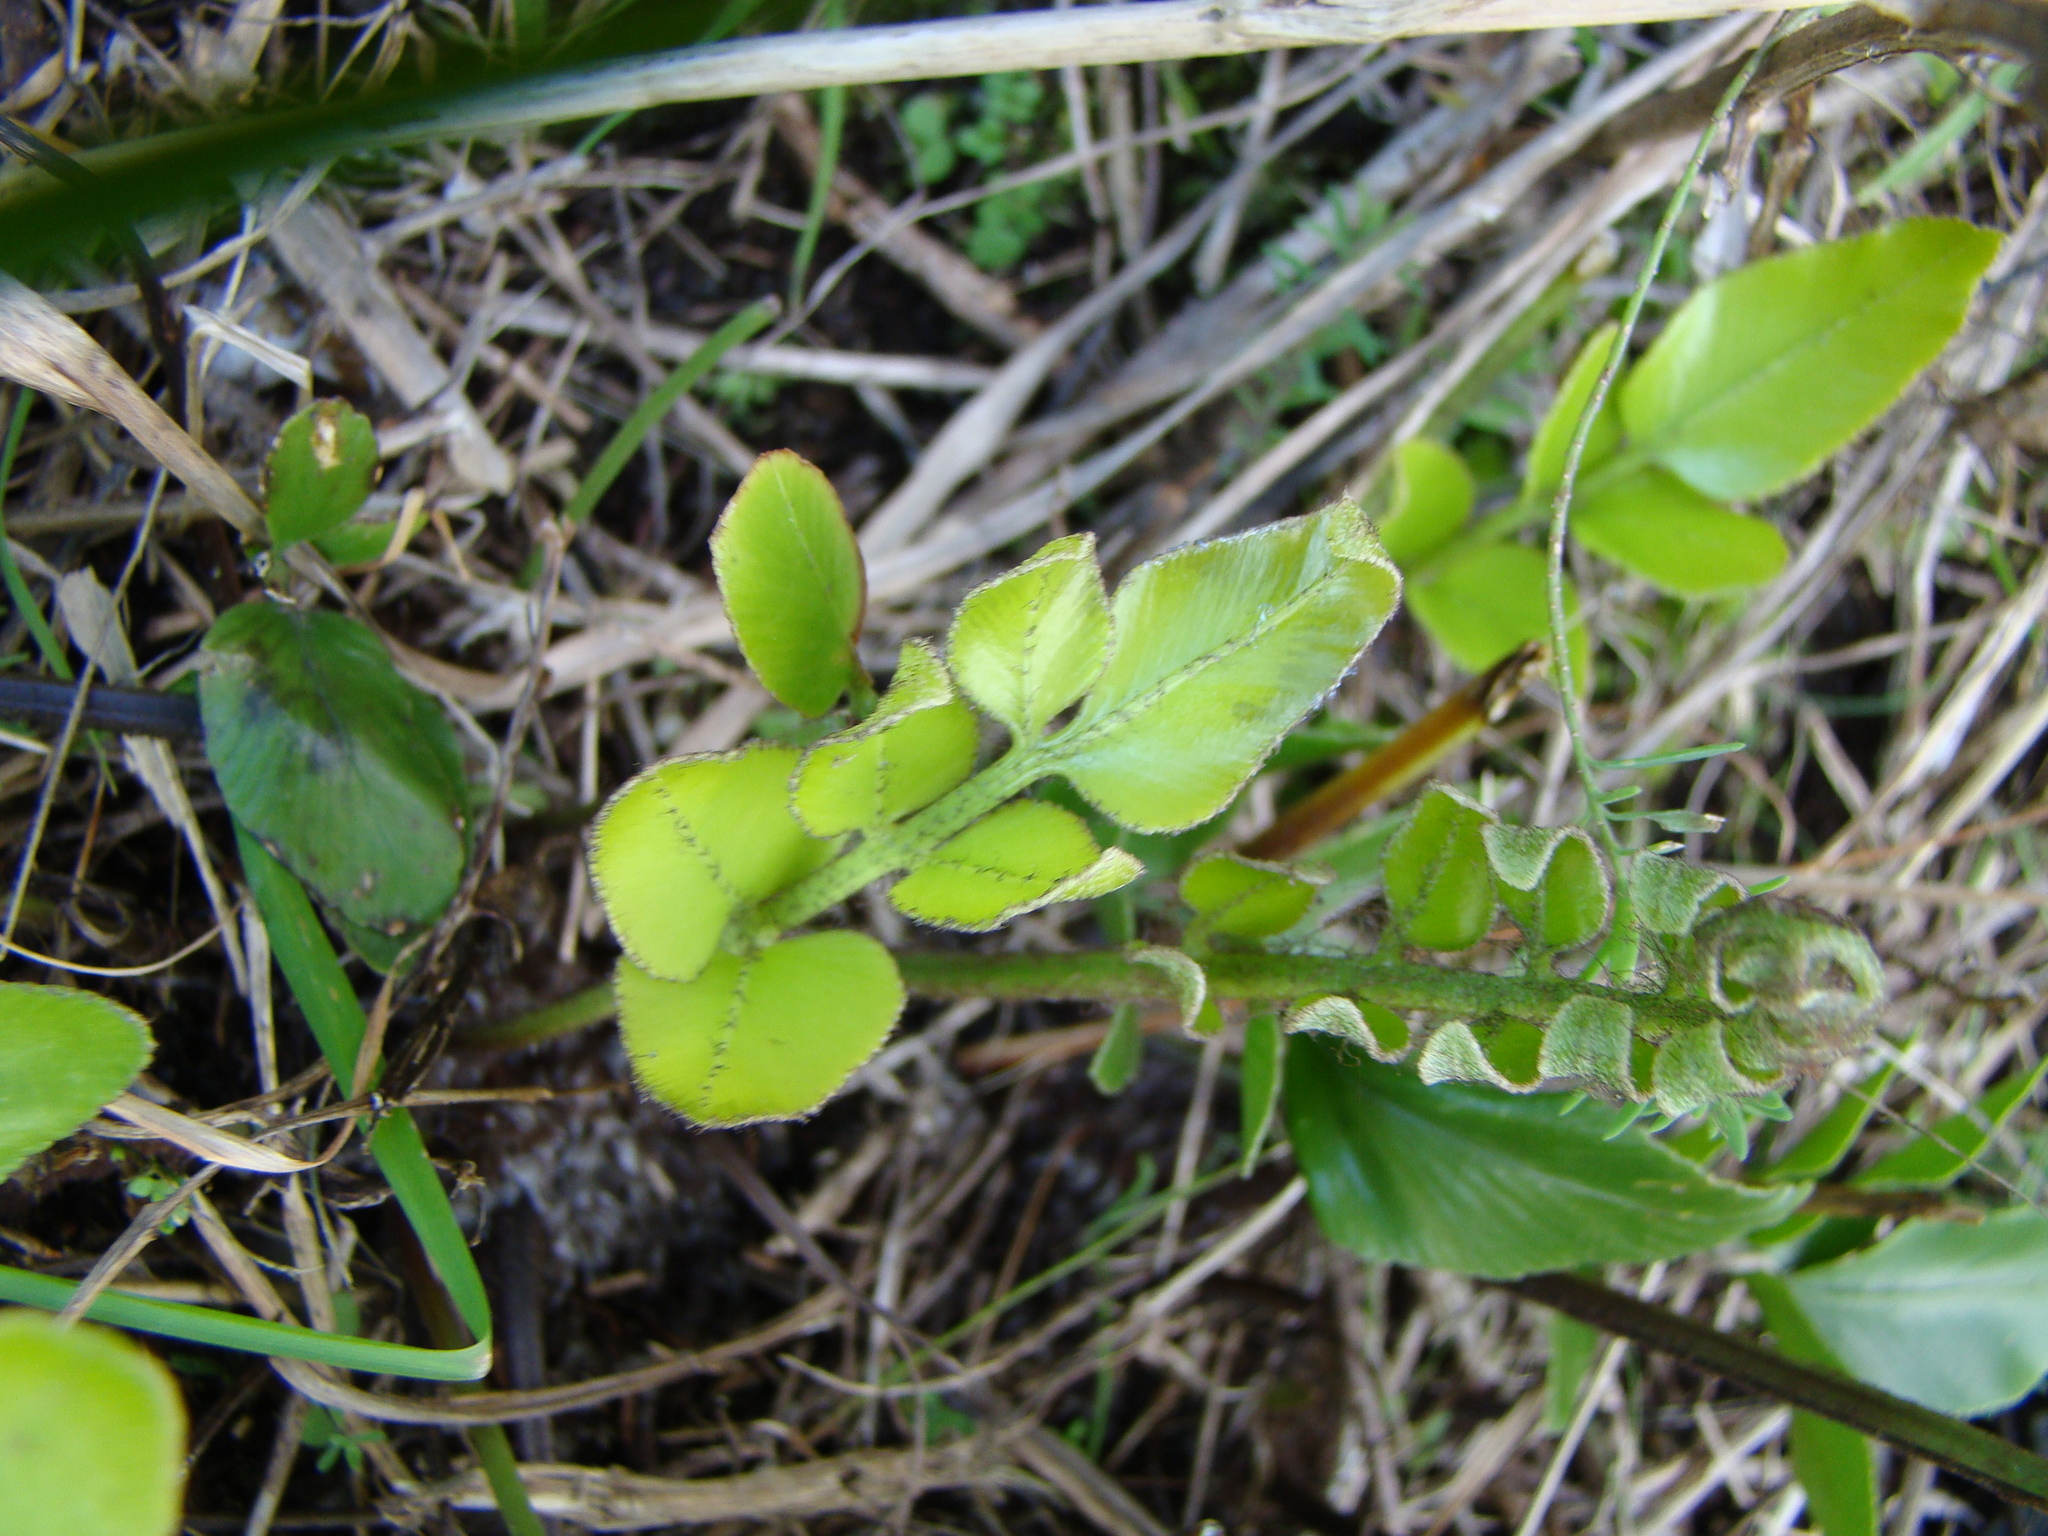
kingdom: Plantae
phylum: Tracheophyta
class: Polypodiopsida
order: Polypodiales
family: Aspleniaceae
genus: Asplenium
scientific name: Asplenium oblongifolium
